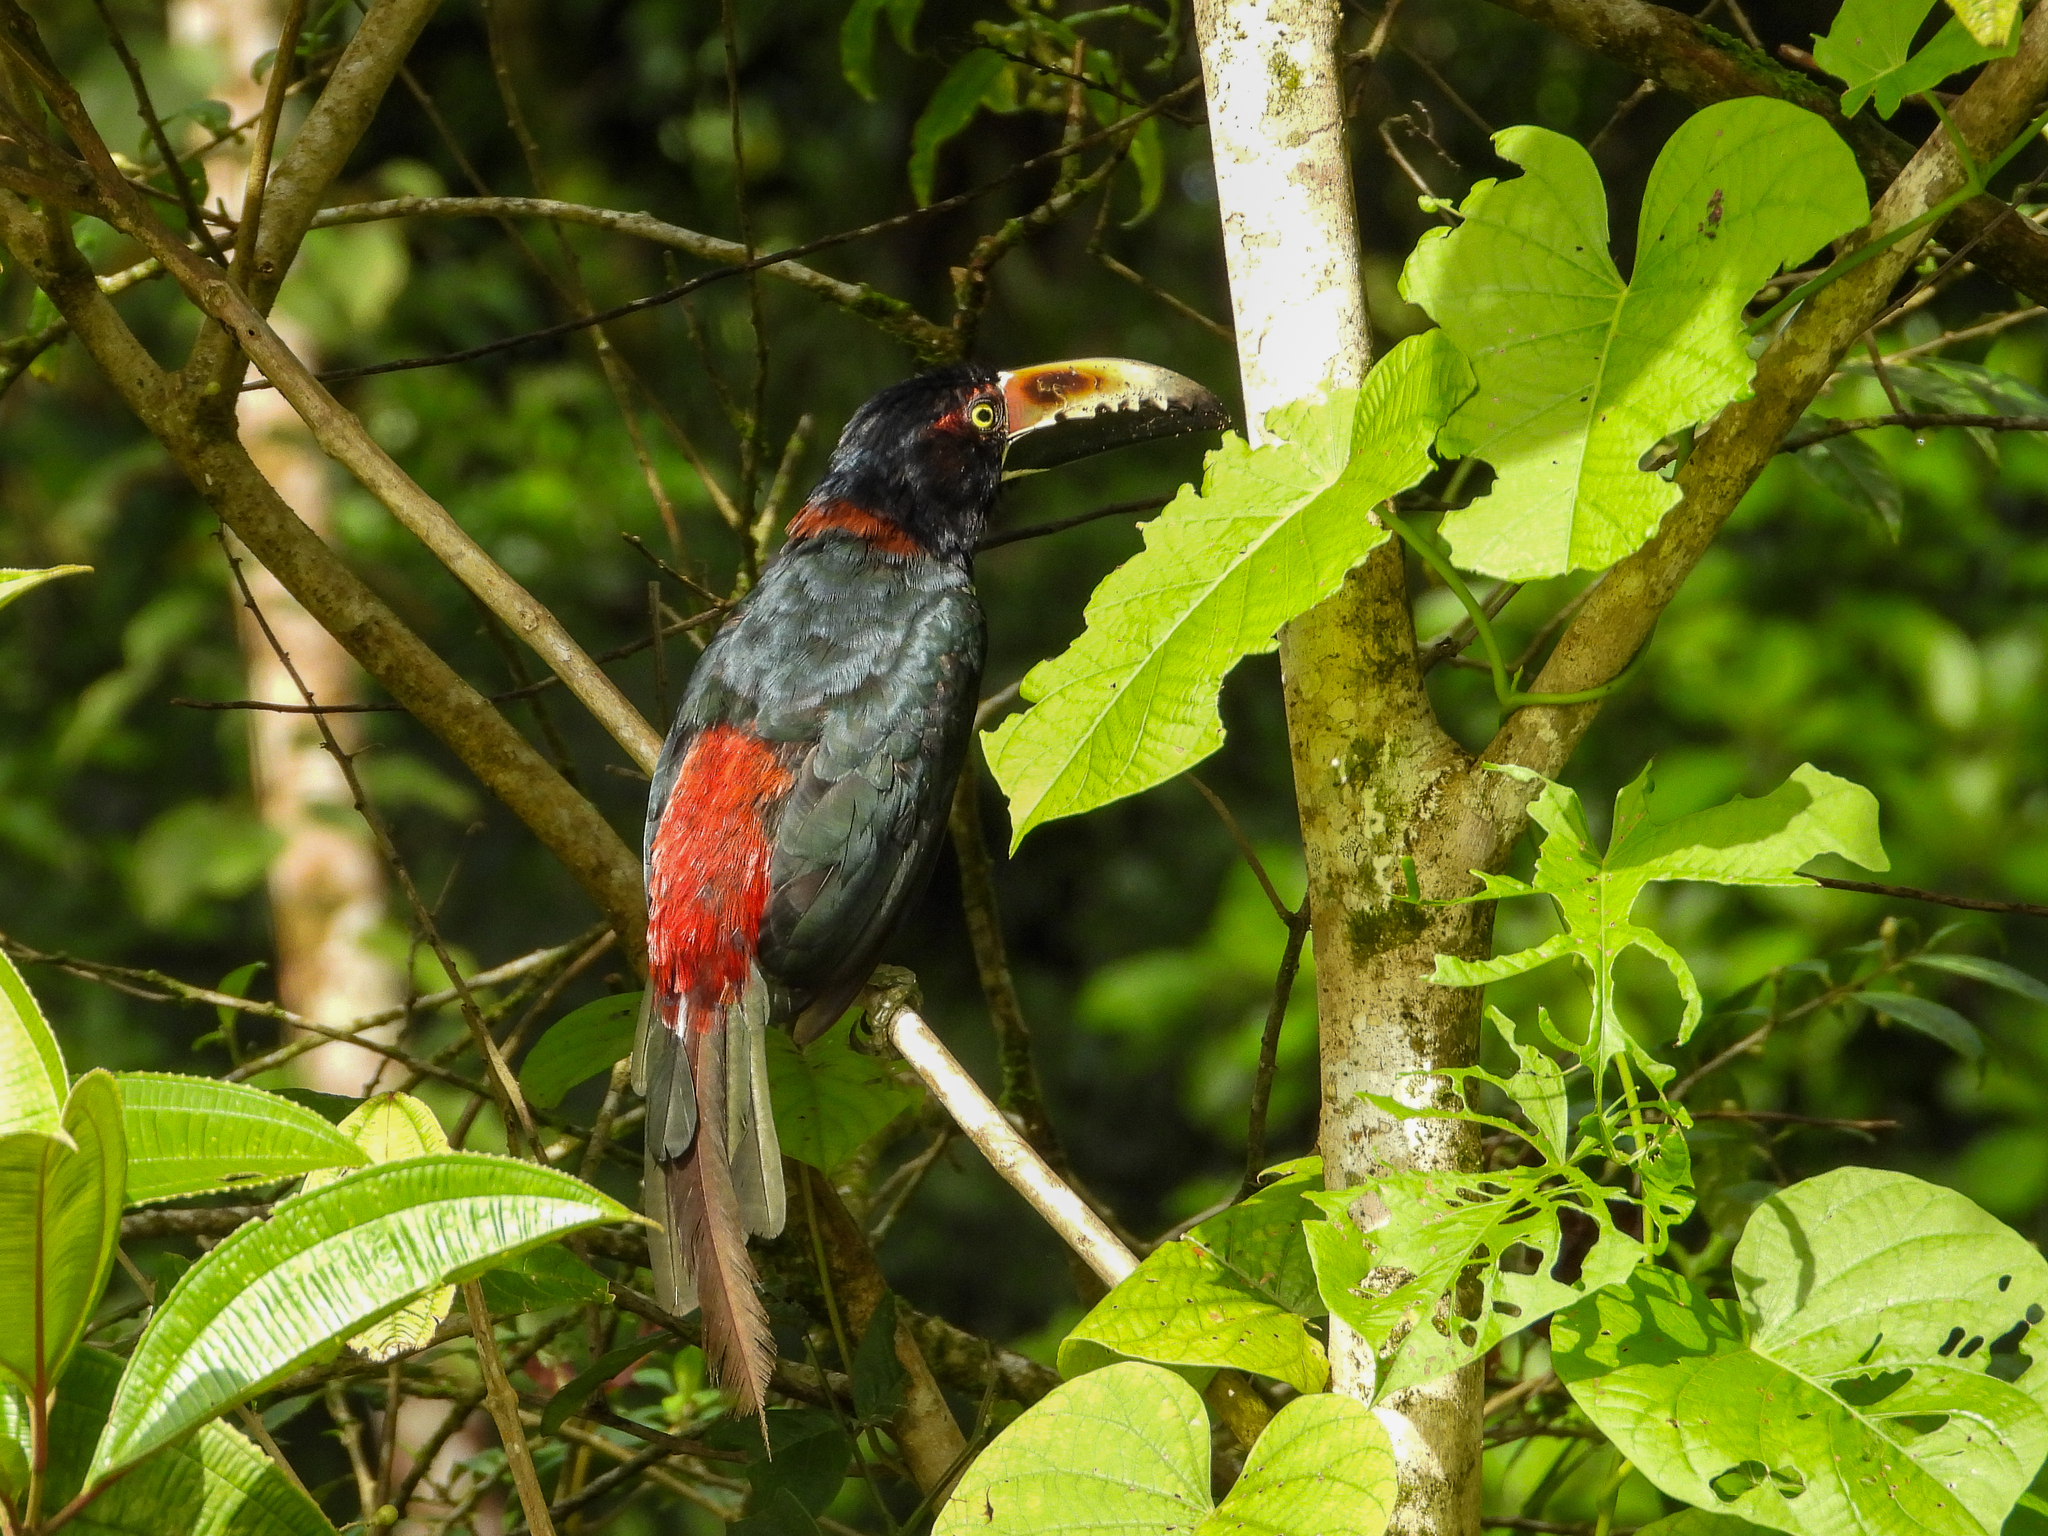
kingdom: Animalia
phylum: Chordata
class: Aves
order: Piciformes
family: Ramphastidae
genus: Pteroglossus
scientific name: Pteroglossus torquatus
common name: Collared aracari
